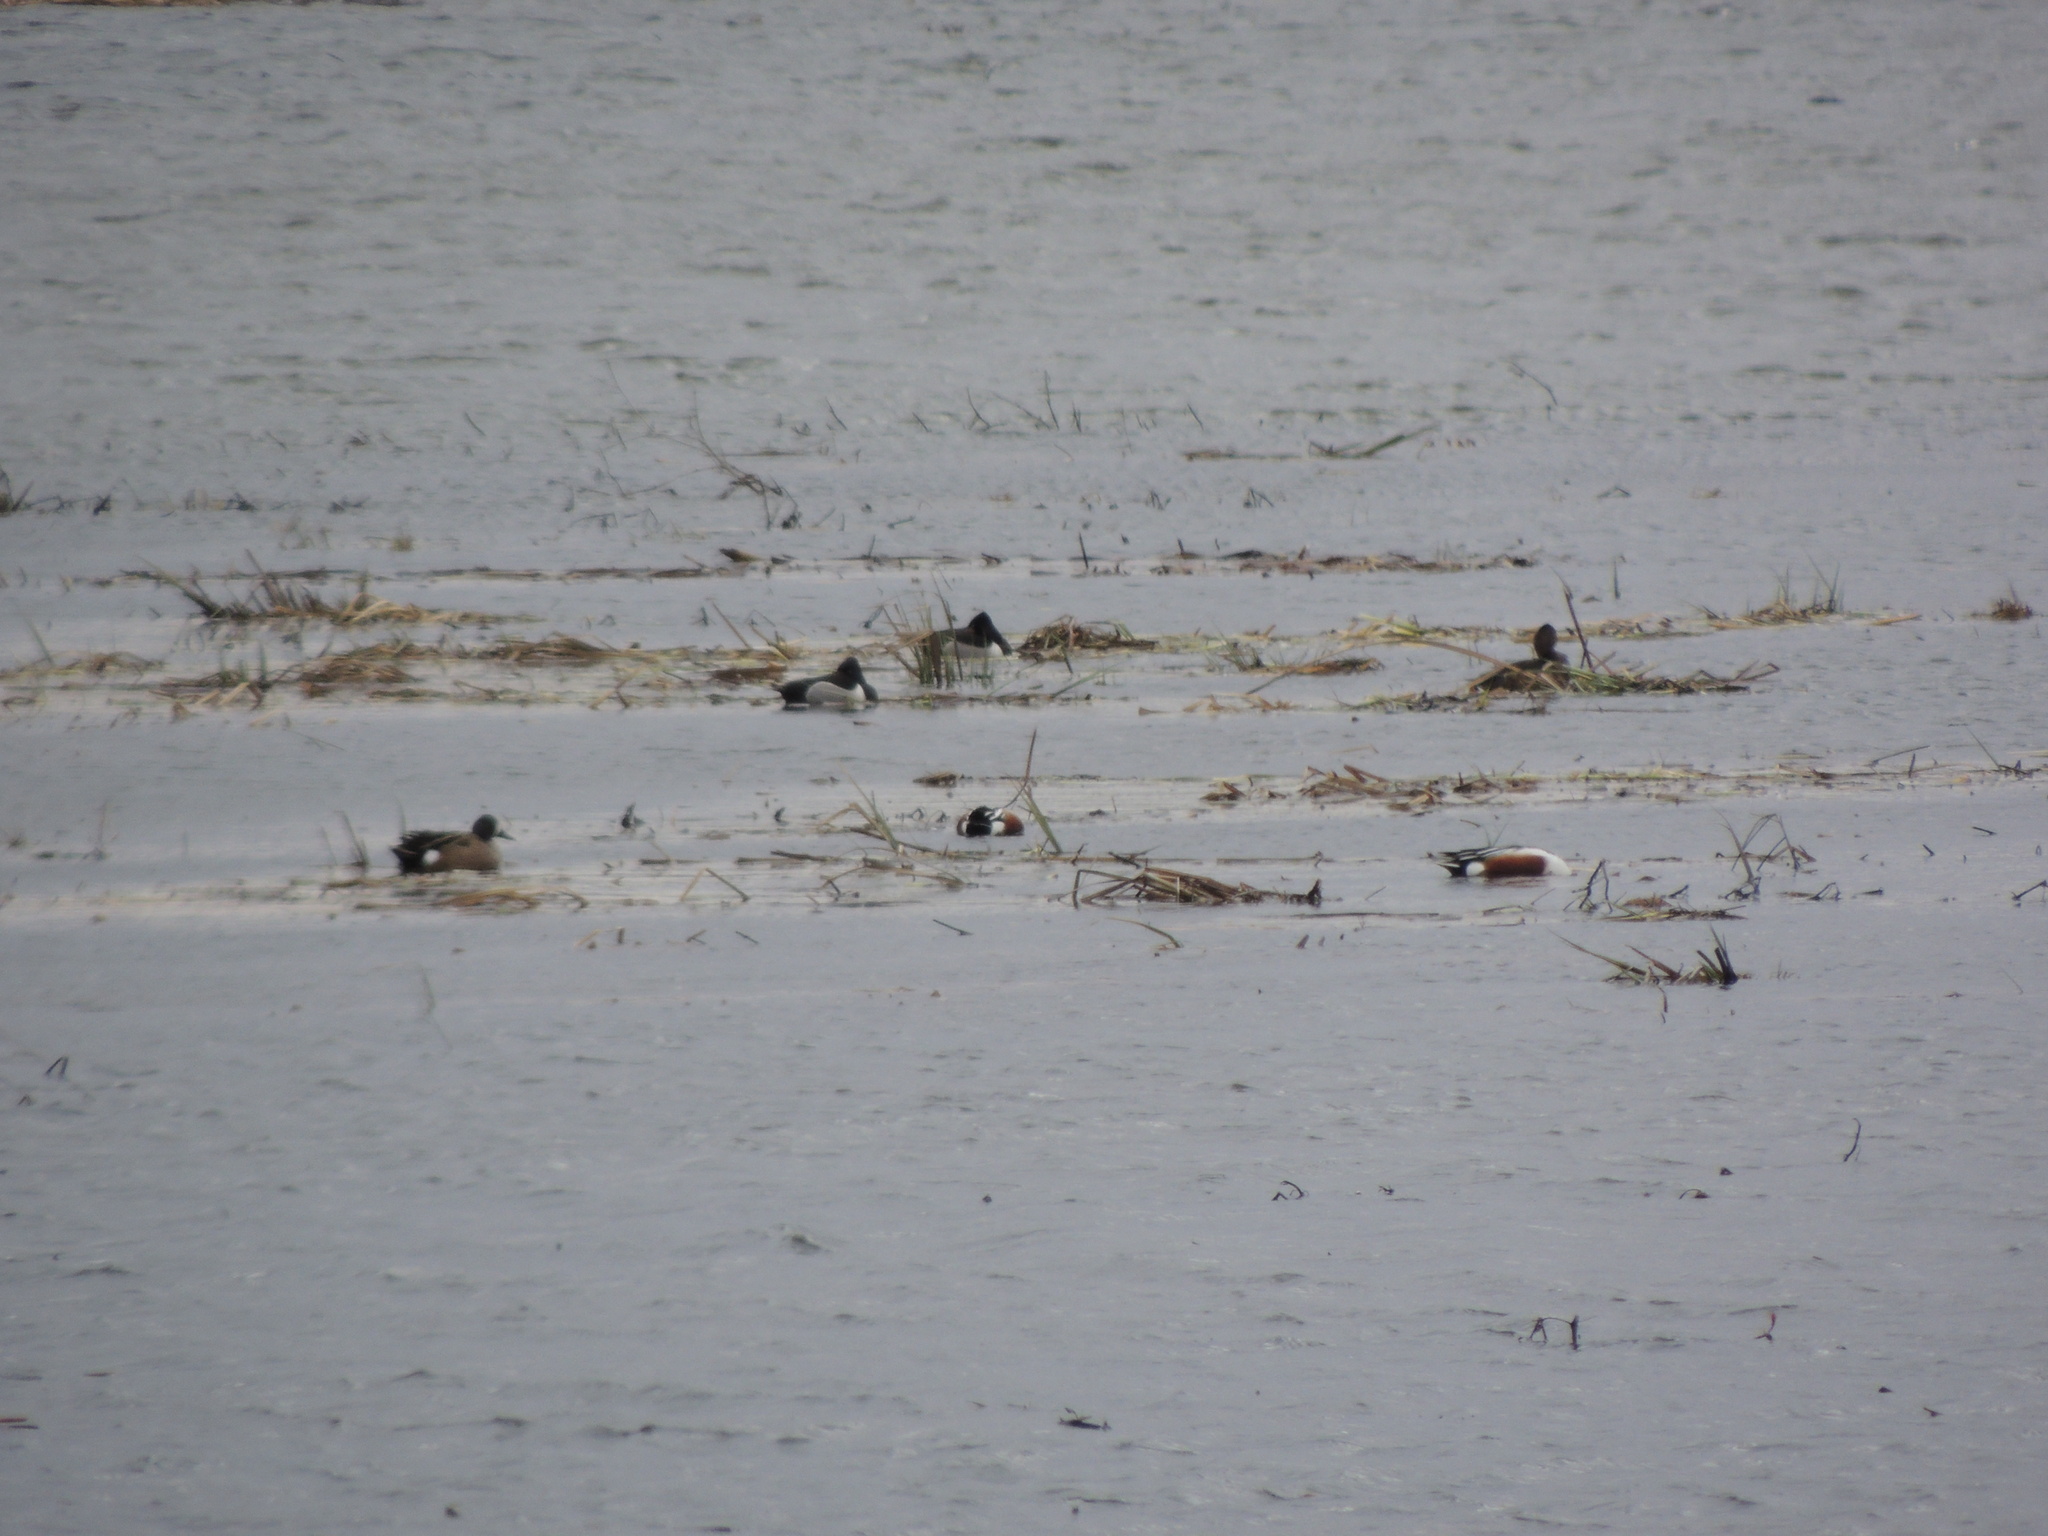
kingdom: Animalia
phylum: Chordata
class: Aves
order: Anseriformes
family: Anatidae
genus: Spatula
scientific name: Spatula discors
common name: Blue-winged teal
